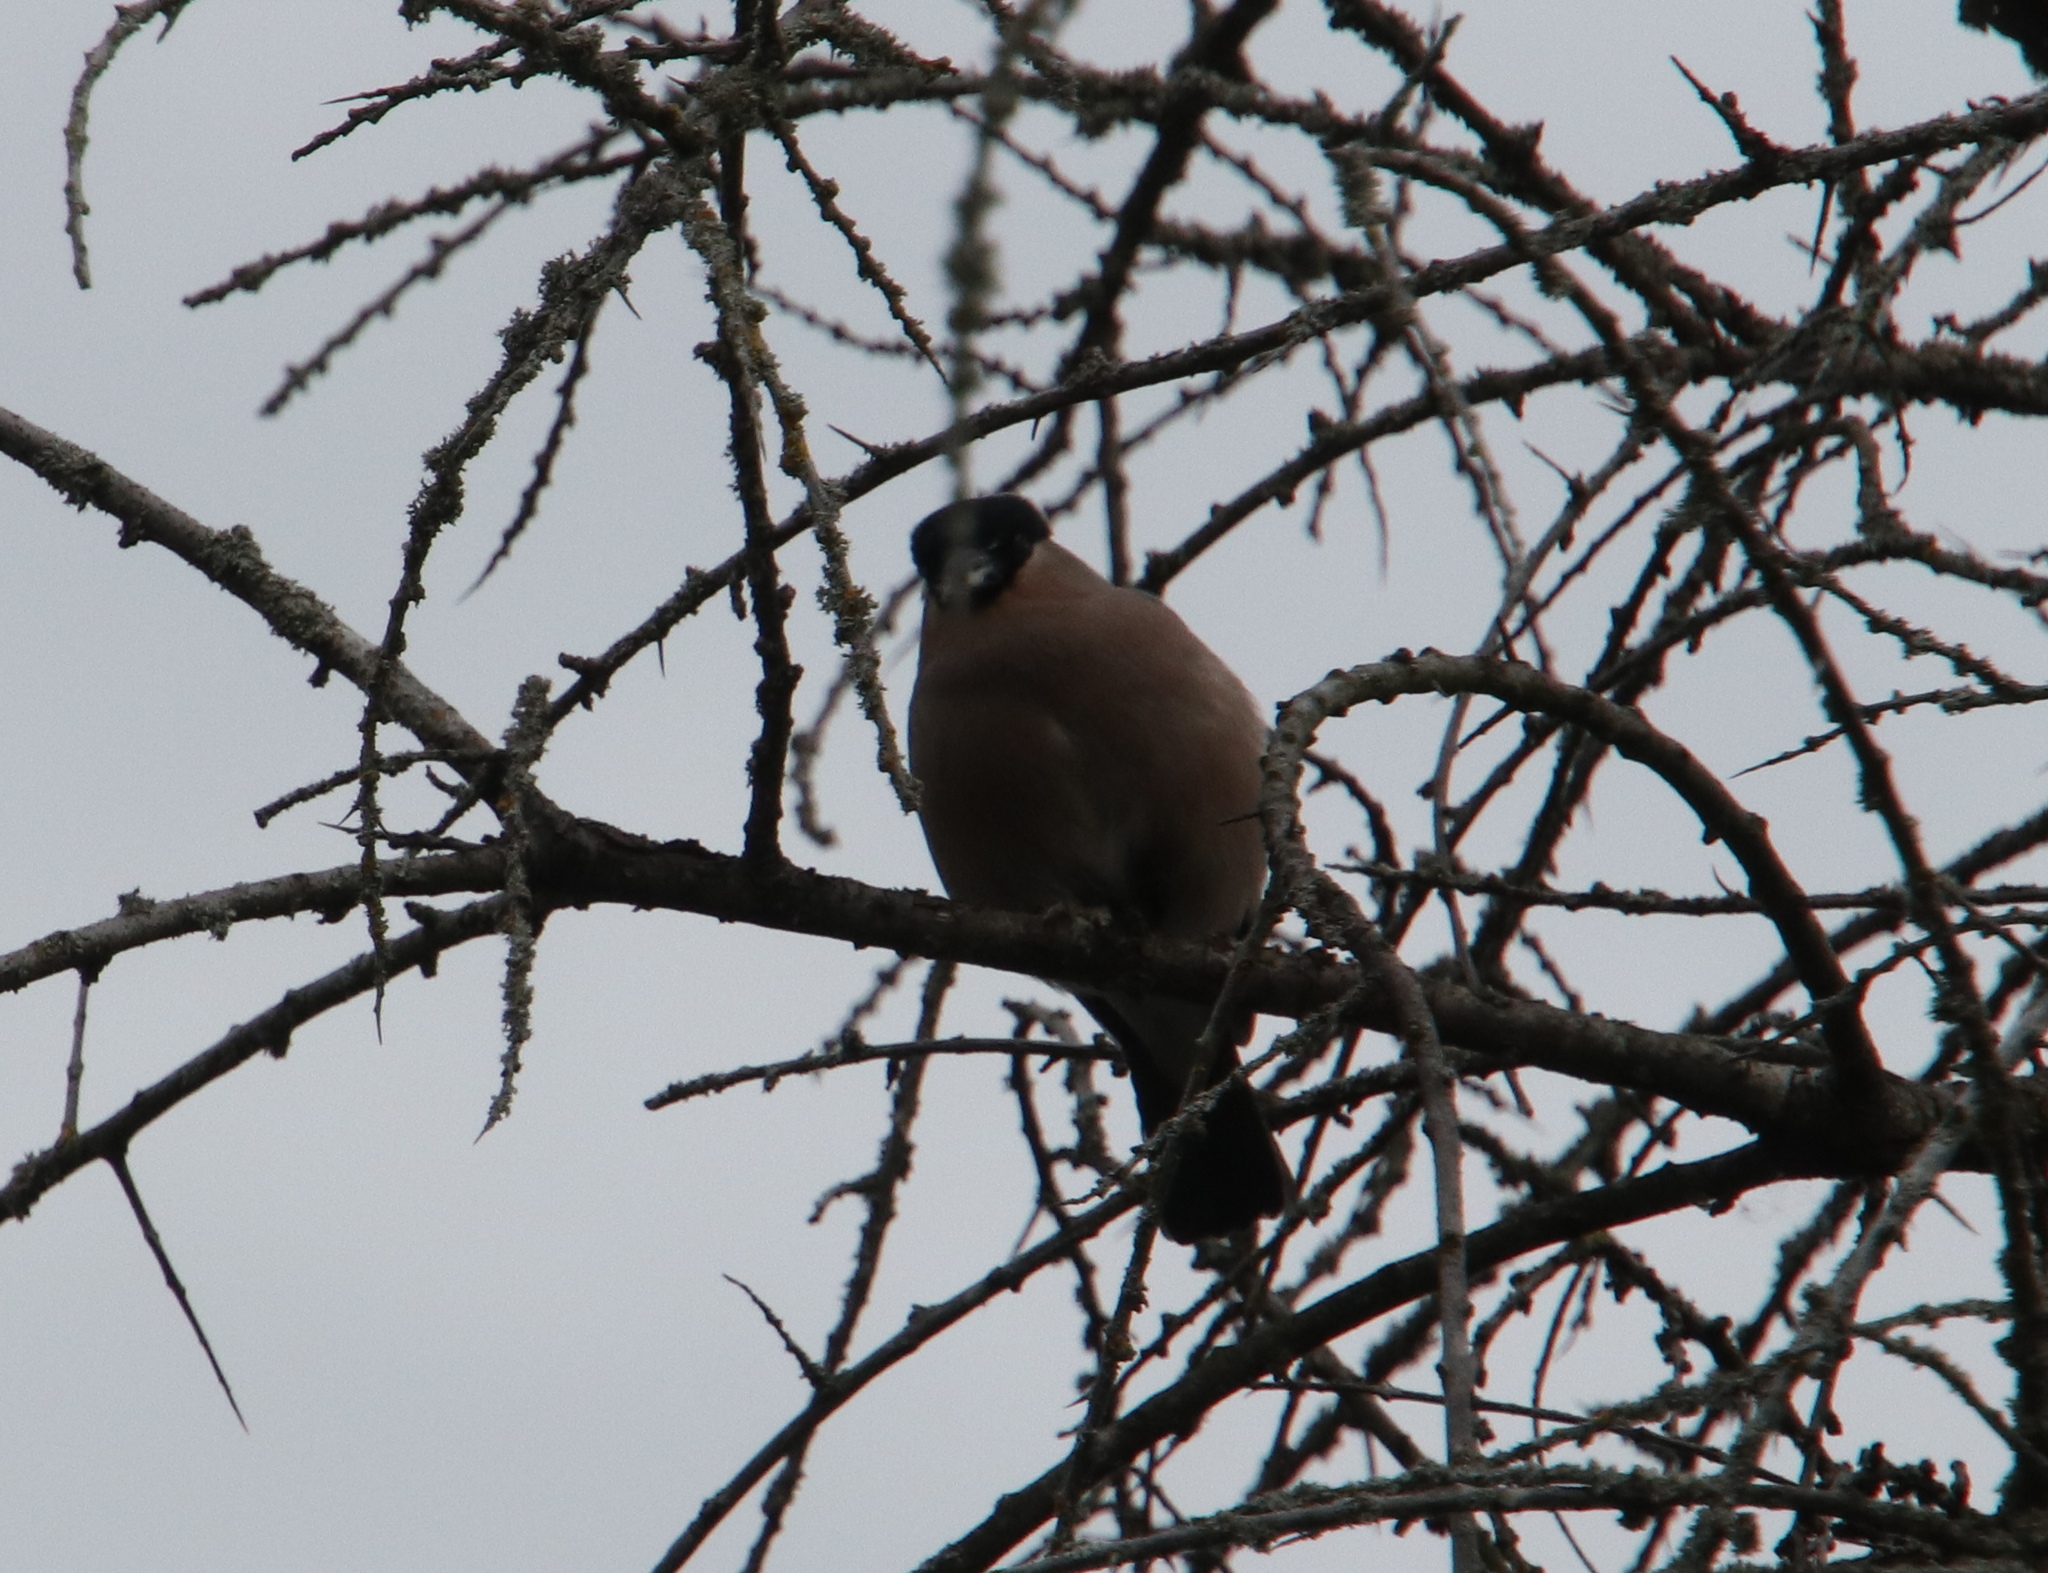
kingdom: Animalia
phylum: Chordata
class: Aves
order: Passeriformes
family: Fringillidae
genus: Pyrrhula
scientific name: Pyrrhula pyrrhula
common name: Eurasian bullfinch
